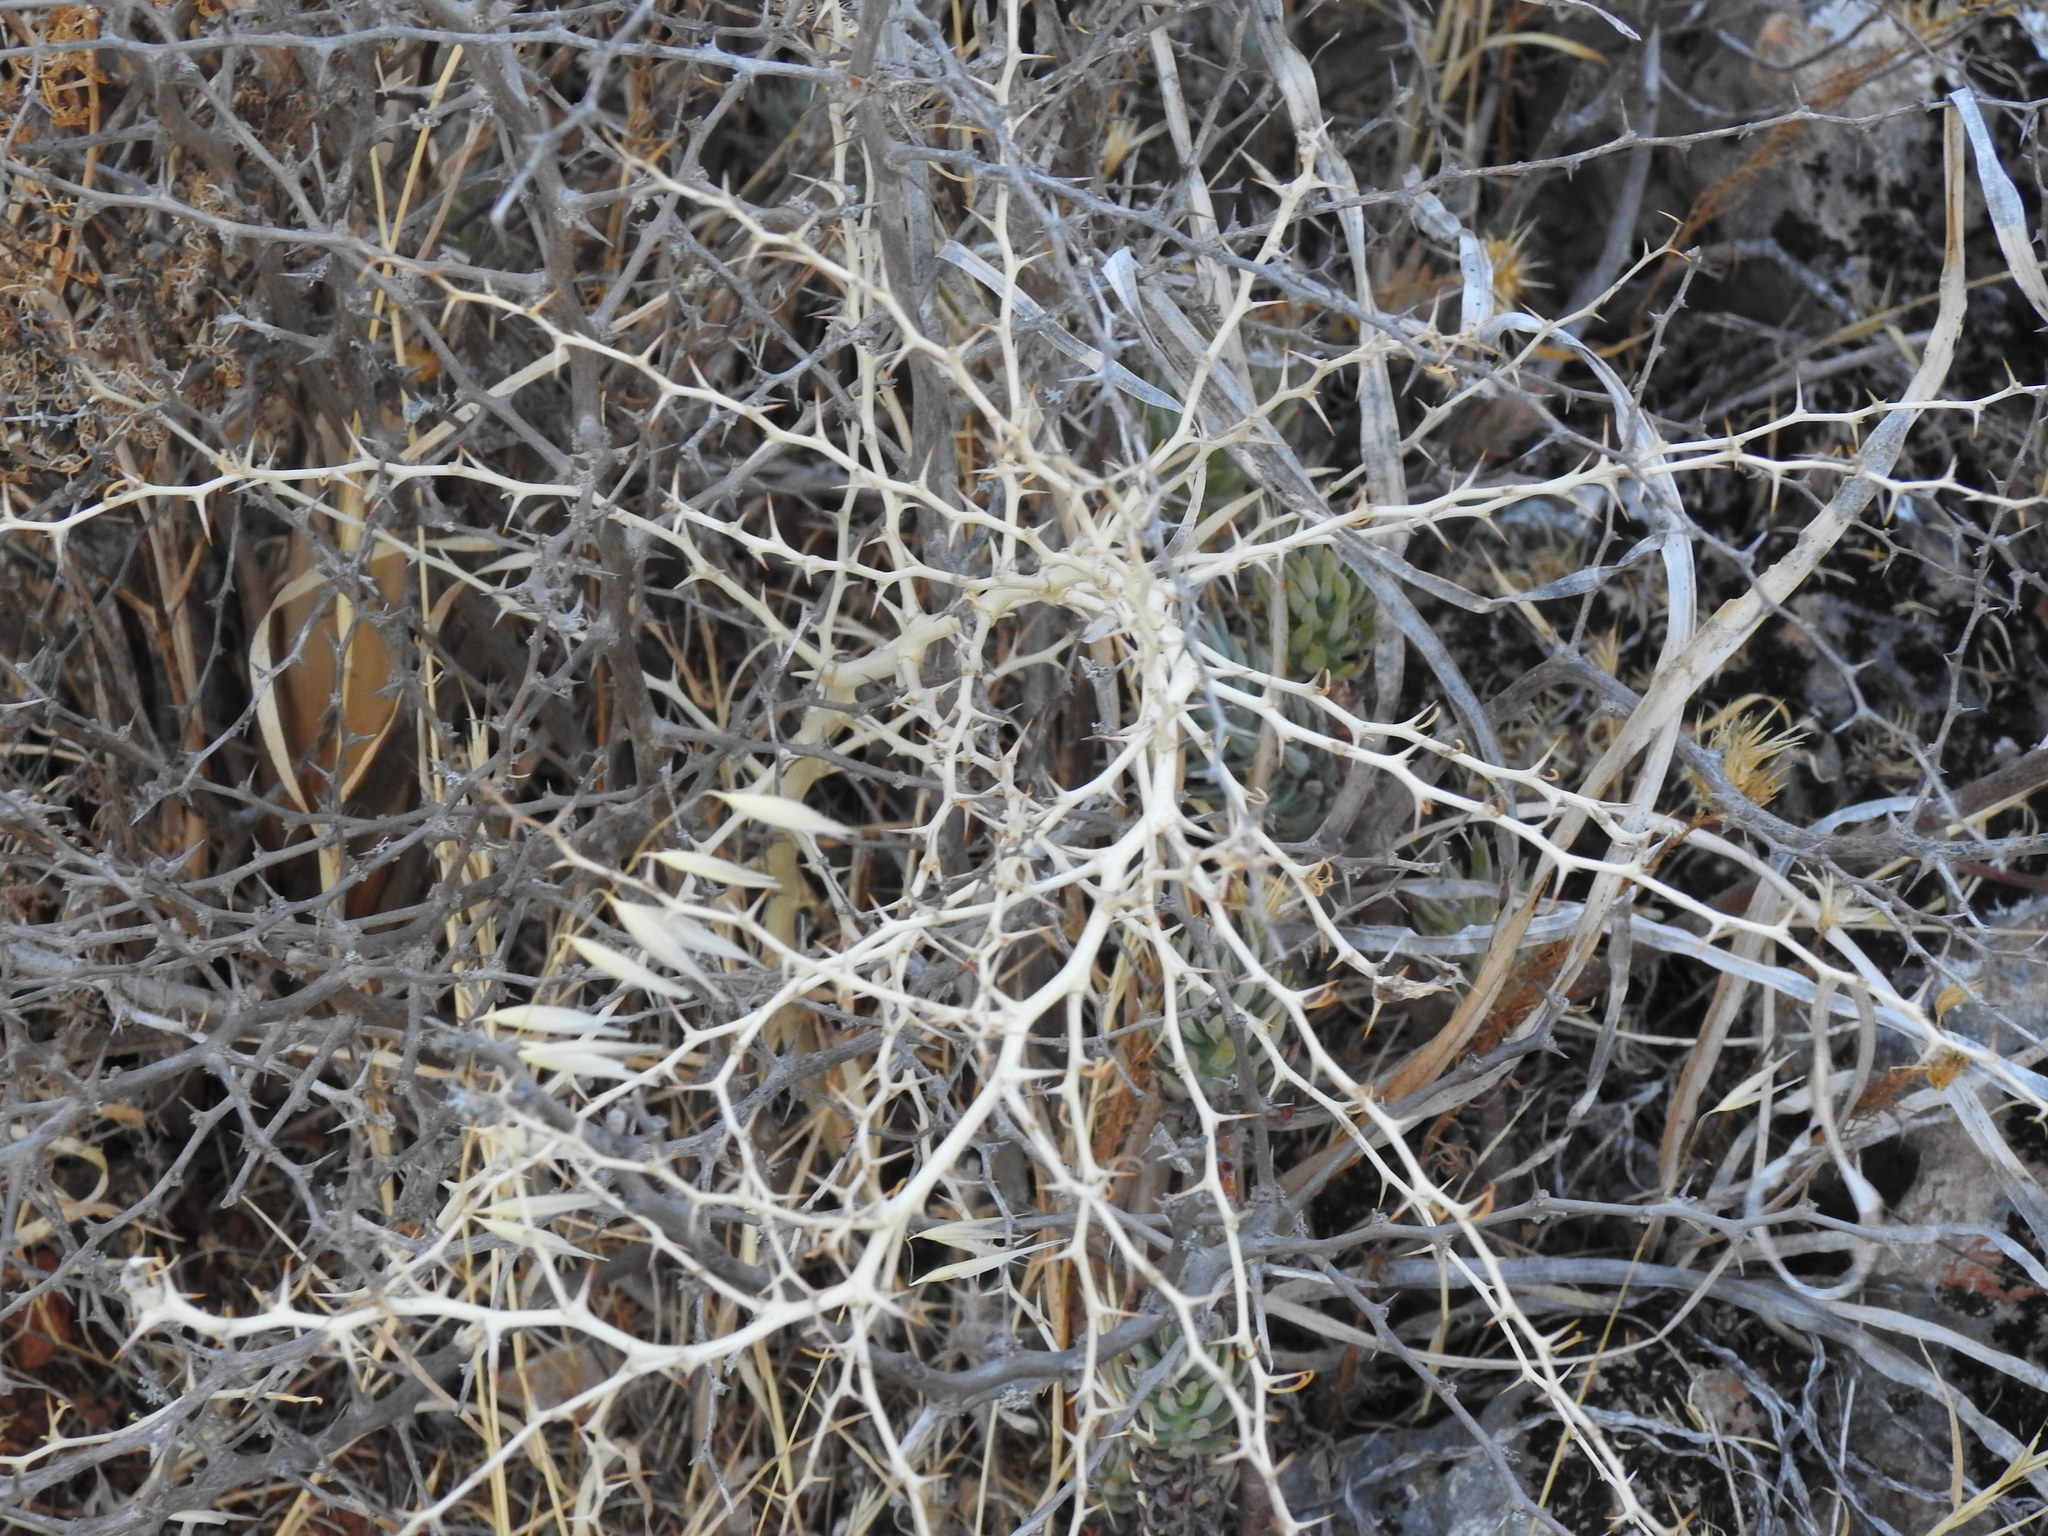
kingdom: Plantae
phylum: Tracheophyta
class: Liliopsida
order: Asparagales
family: Asparagaceae
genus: Asparagus
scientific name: Asparagus albus
